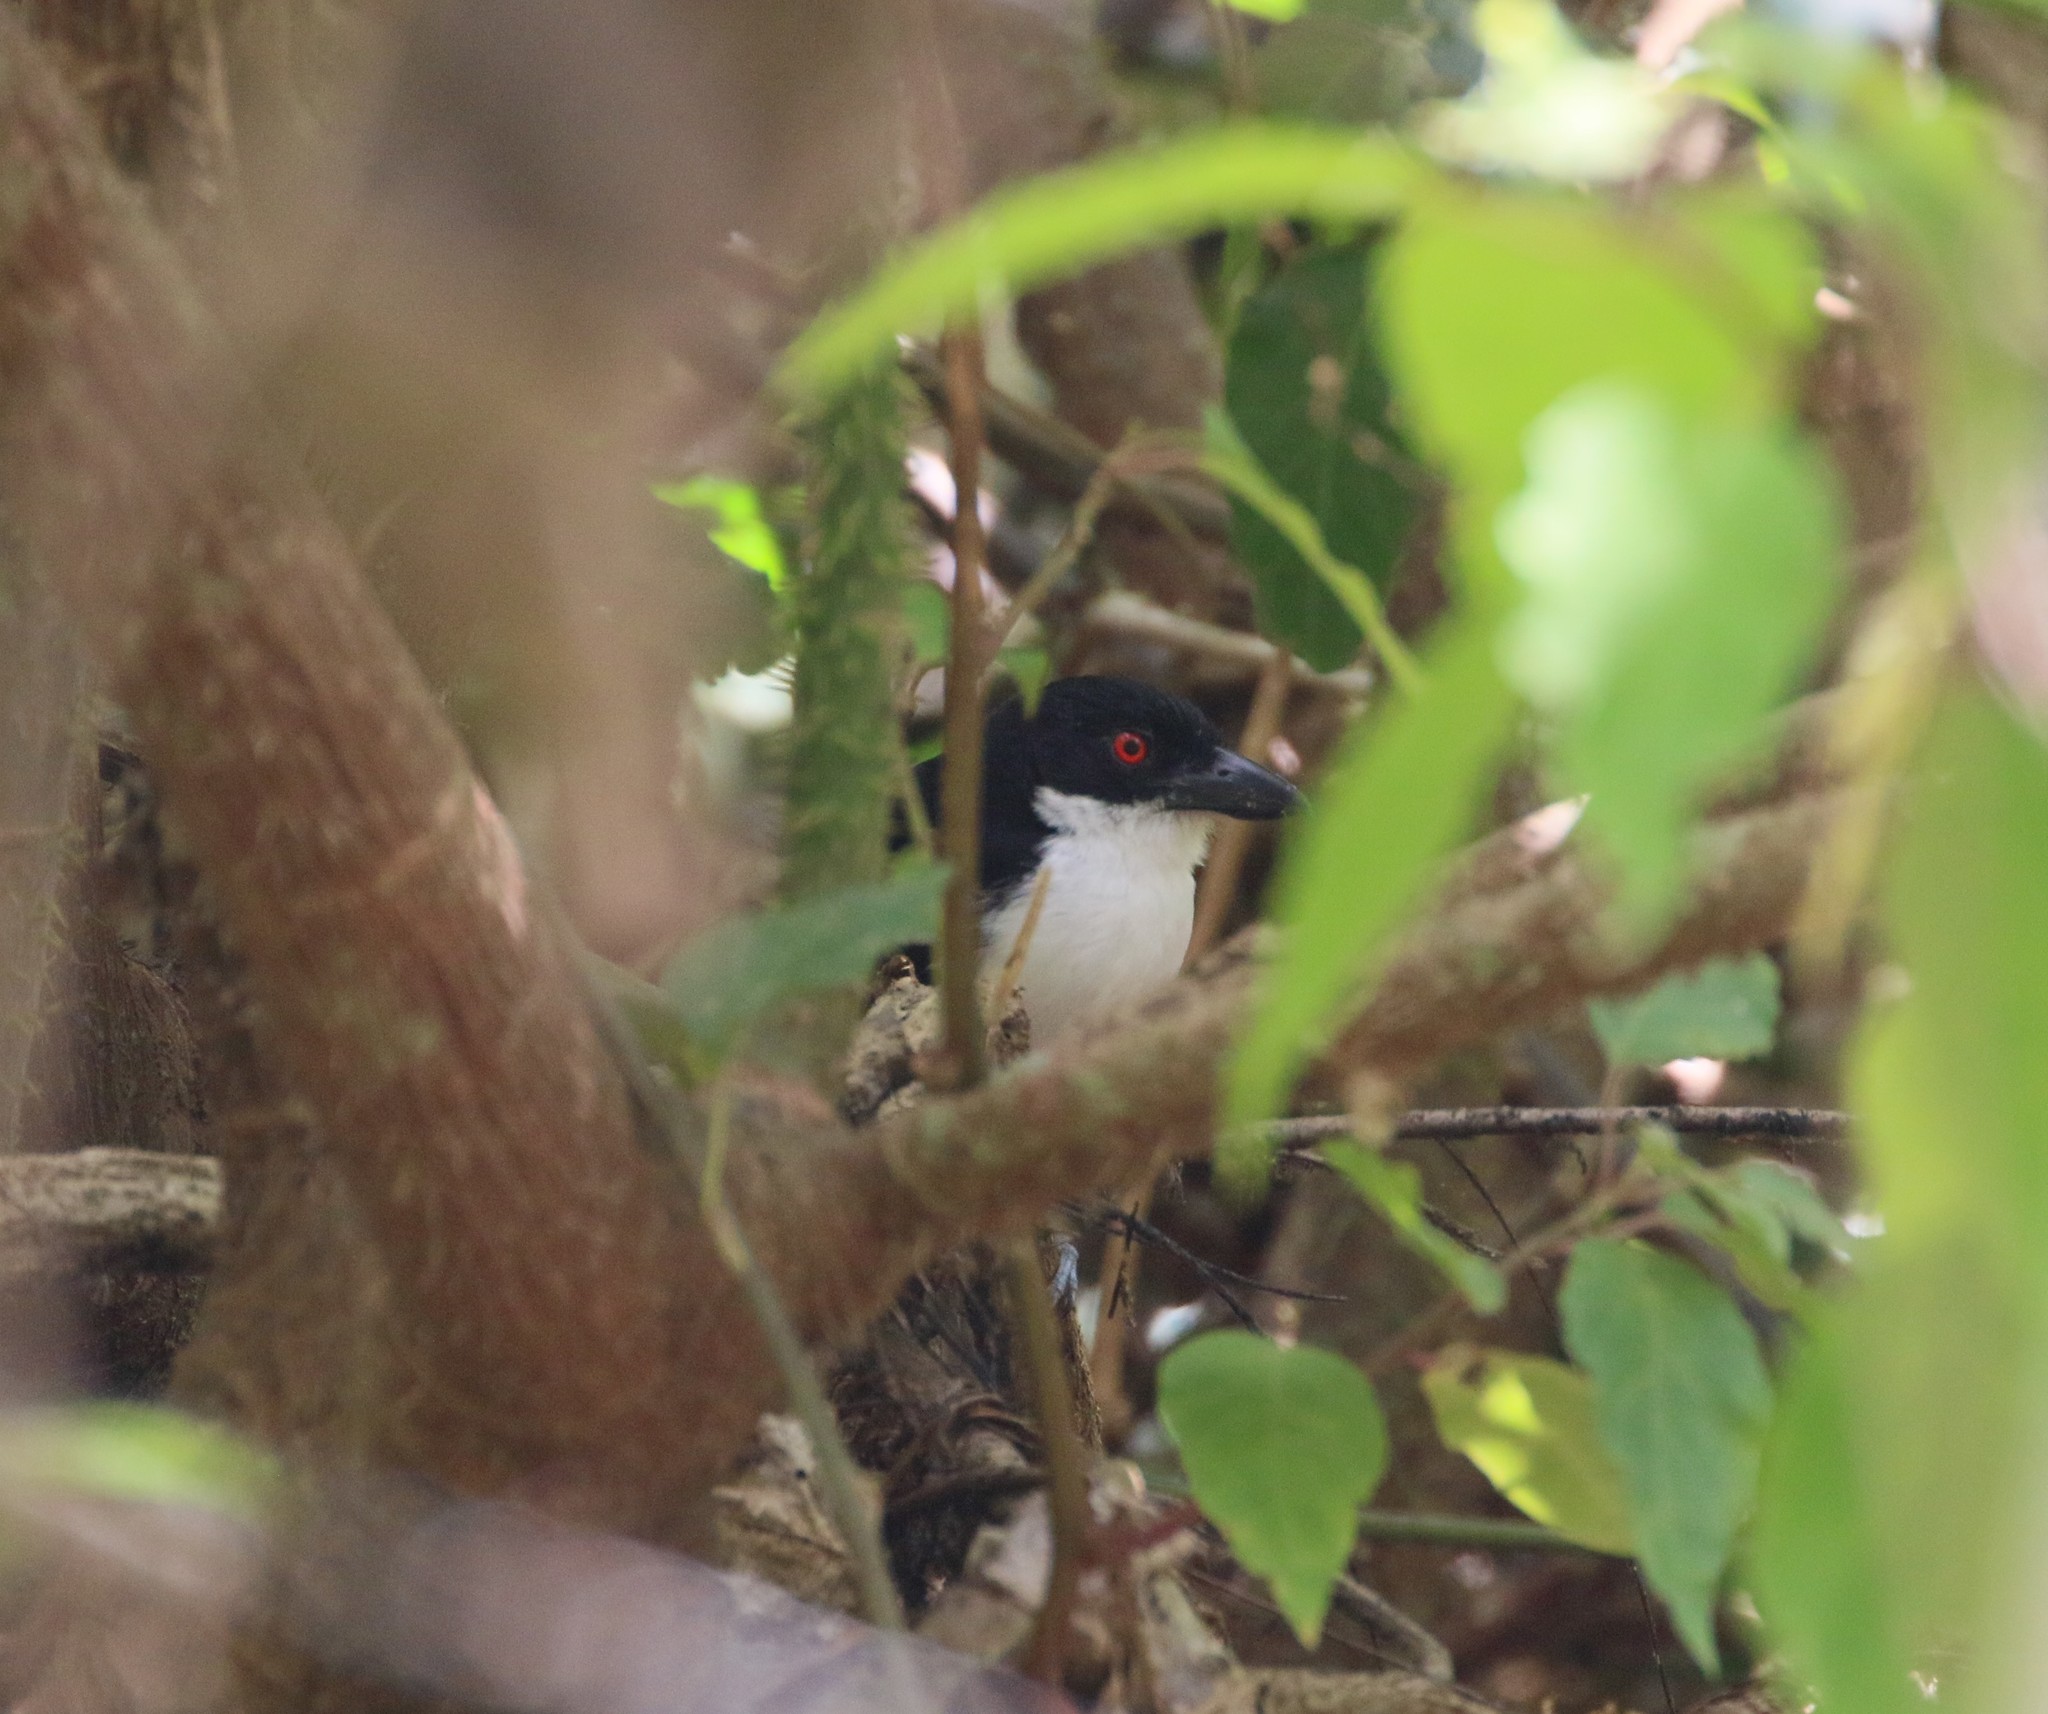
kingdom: Animalia
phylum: Chordata
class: Aves
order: Passeriformes
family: Thamnophilidae
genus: Taraba
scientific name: Taraba major
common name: Great antshrike
